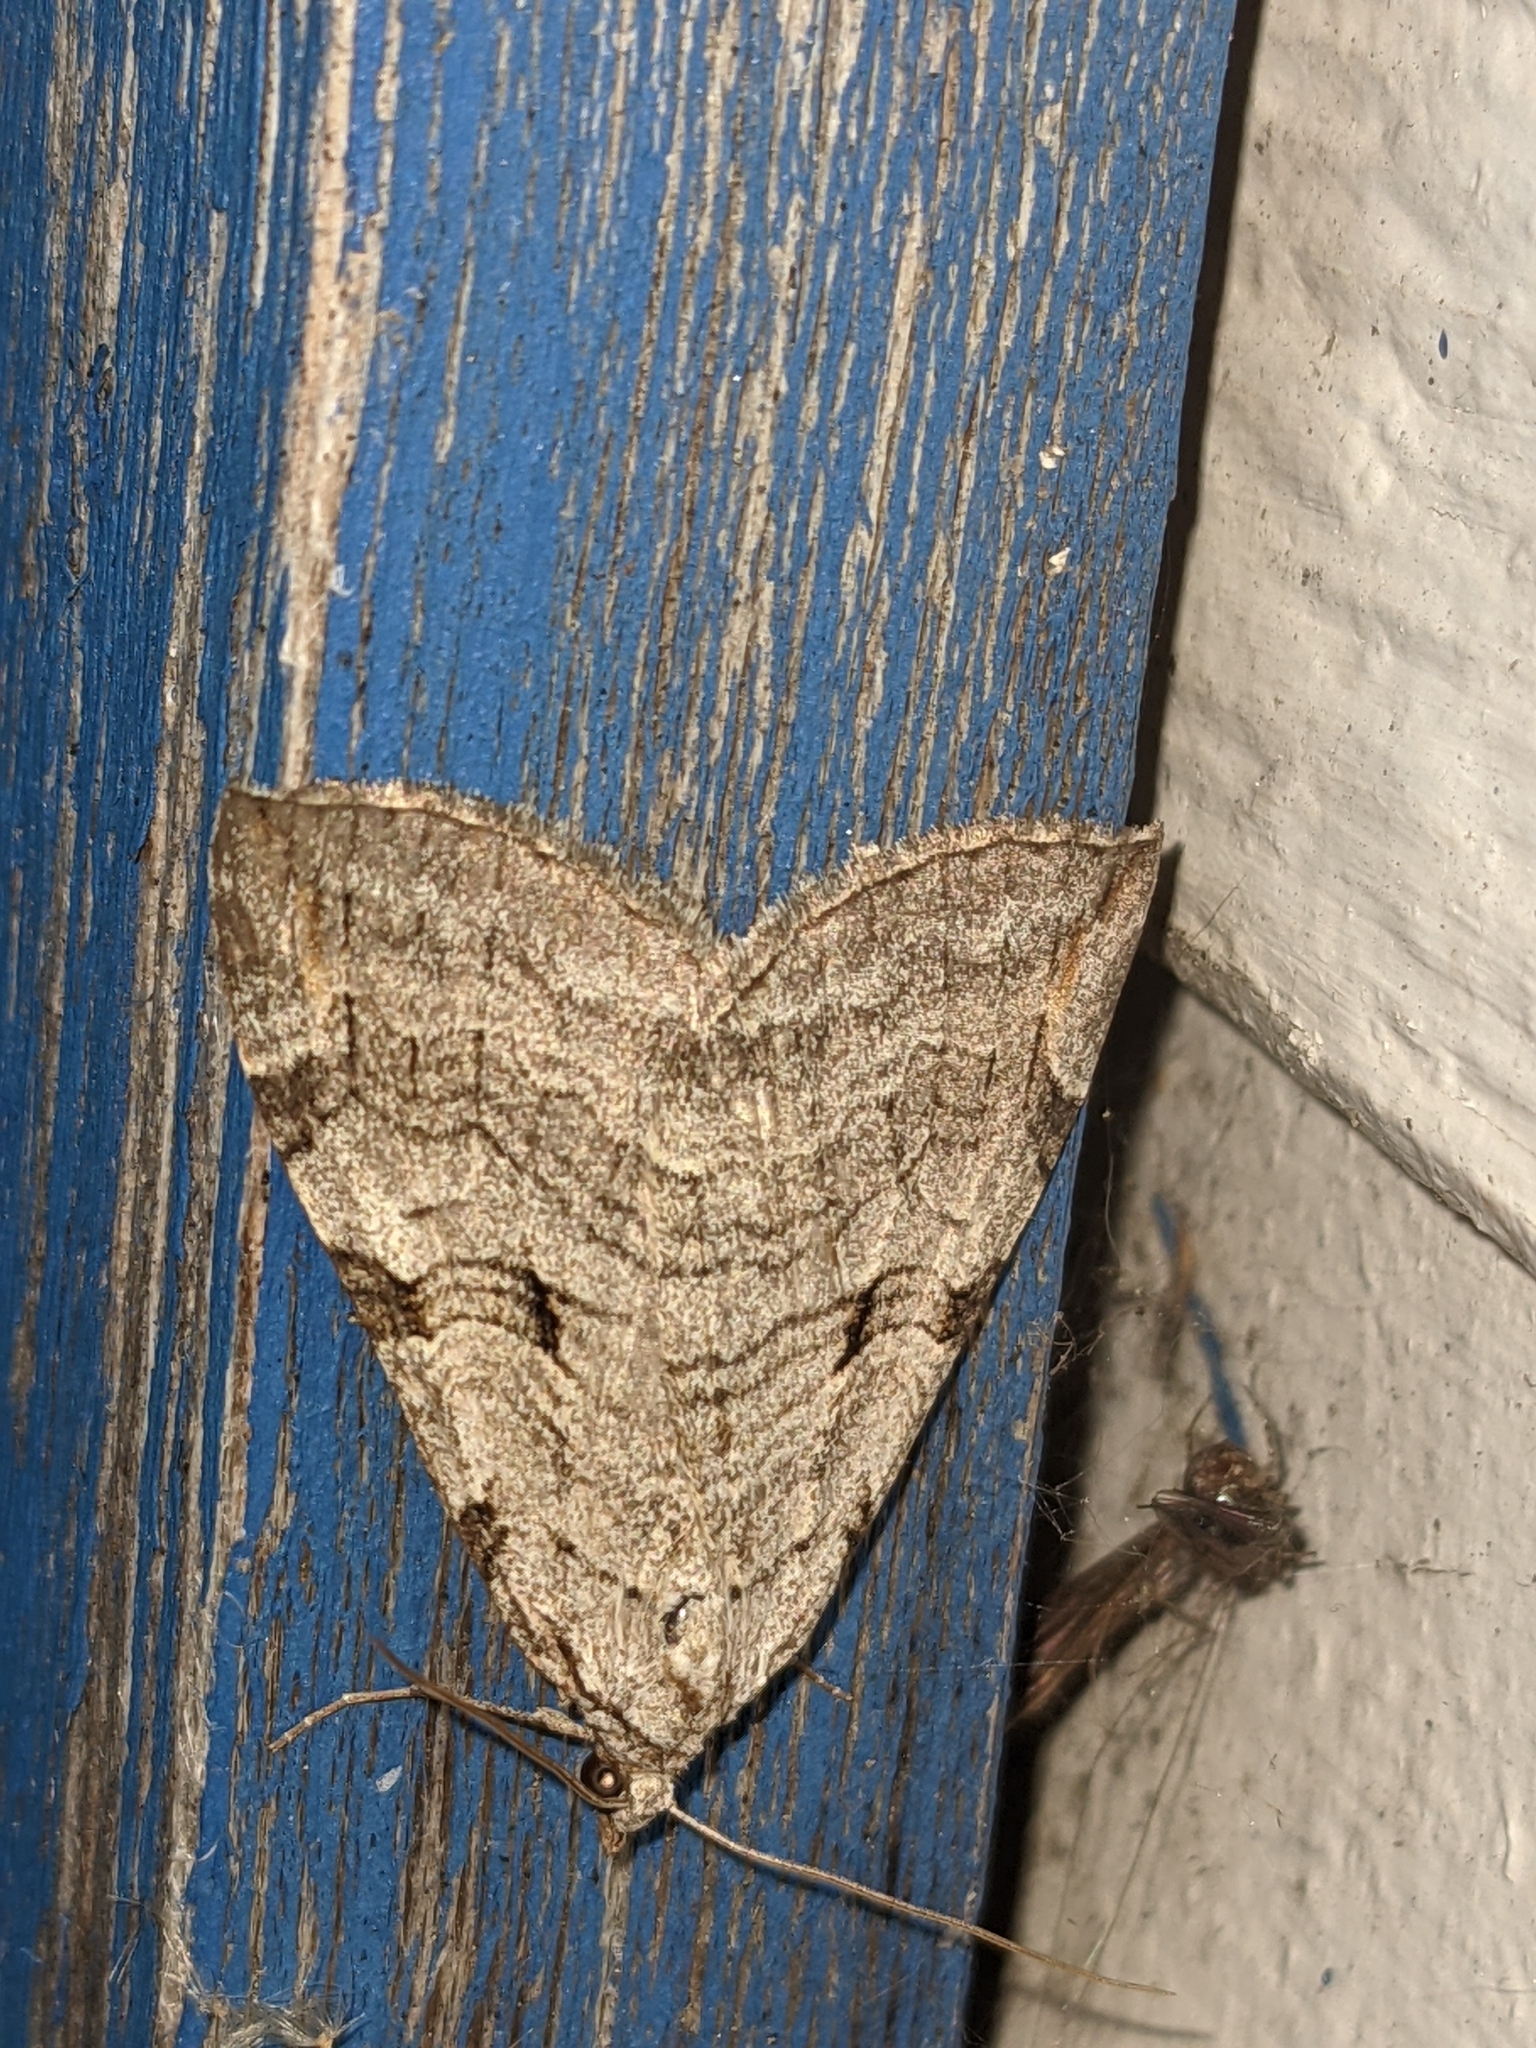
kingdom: Animalia
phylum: Arthropoda
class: Insecta
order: Lepidoptera
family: Geometridae
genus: Aplocera
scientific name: Aplocera plagiata
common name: Treble-bar
